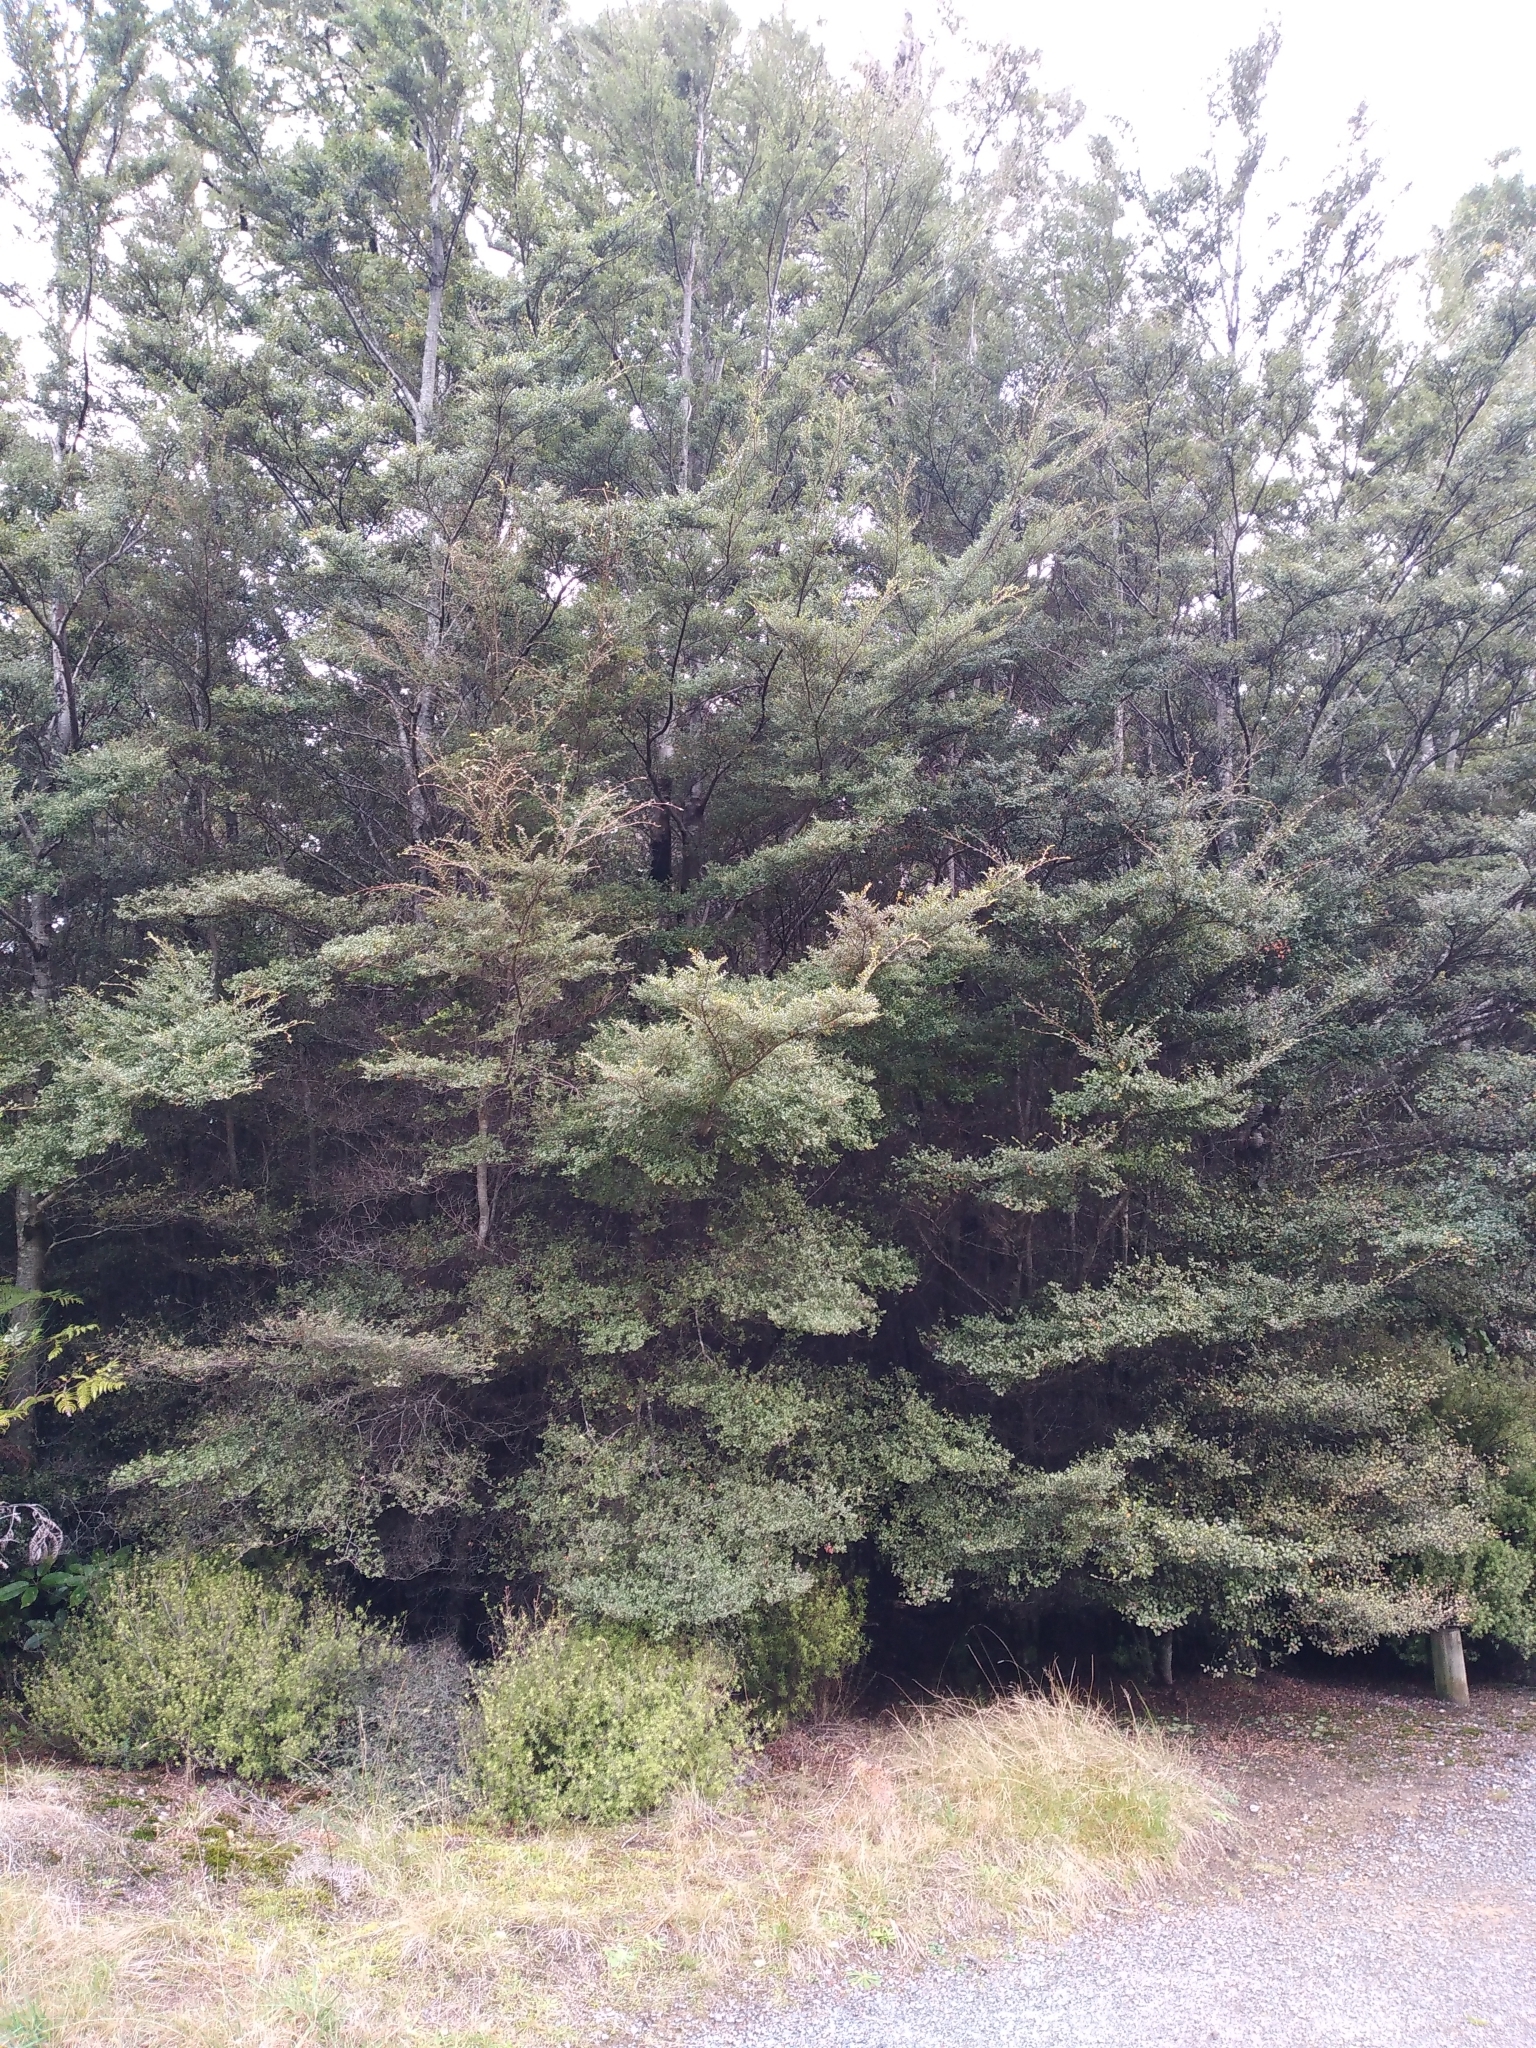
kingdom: Plantae
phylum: Tracheophyta
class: Magnoliopsida
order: Fagales
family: Nothofagaceae
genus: Nothofagus
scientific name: Nothofagus solandri
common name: Black beech
